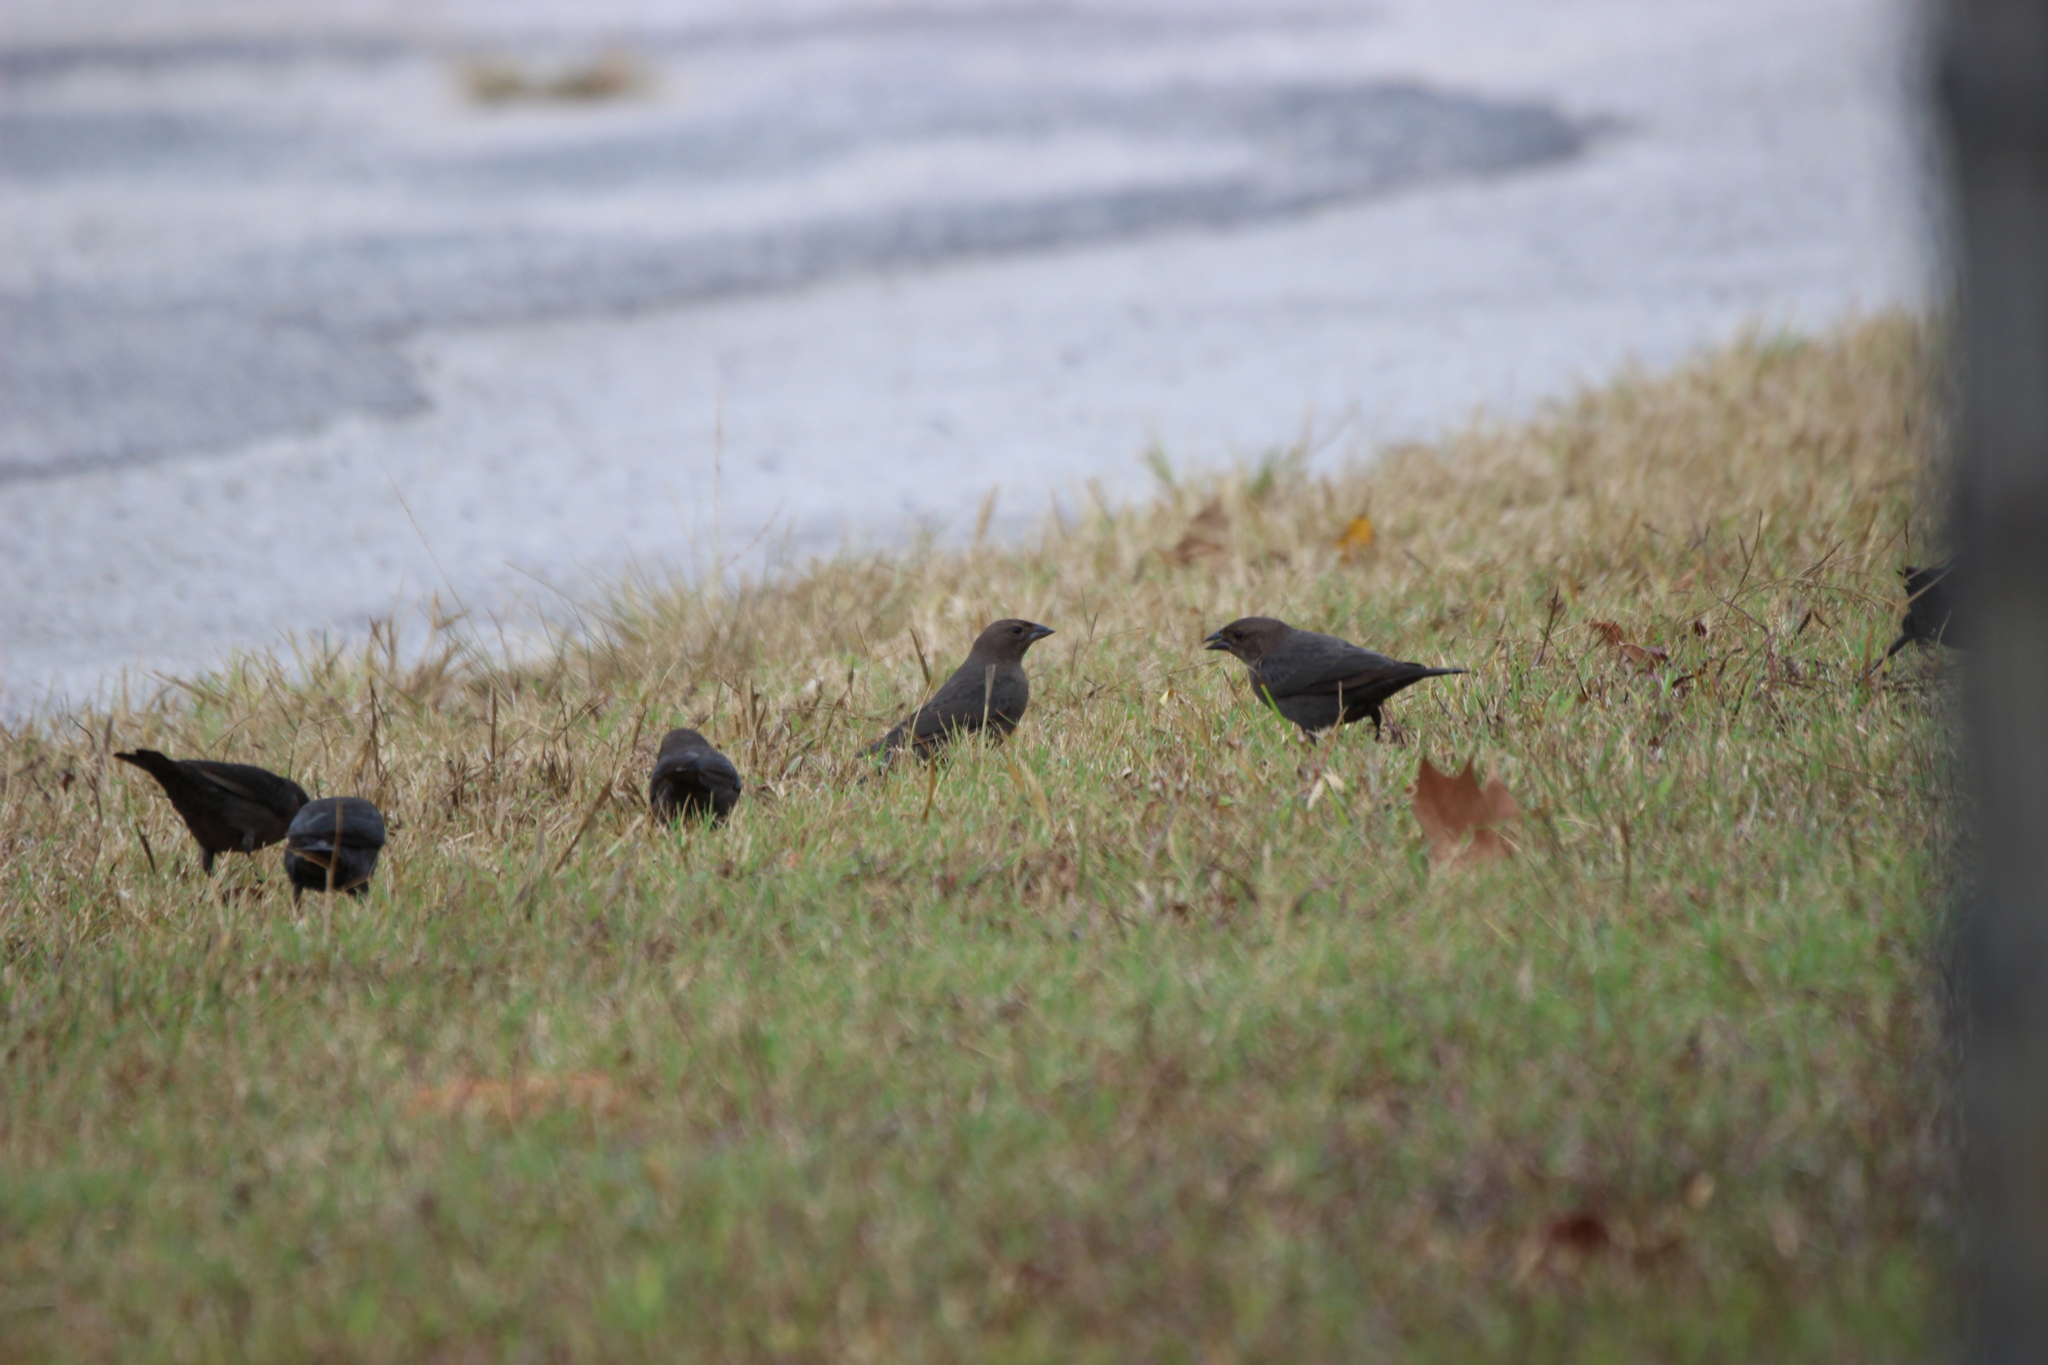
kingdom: Animalia
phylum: Chordata
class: Aves
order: Passeriformes
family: Icteridae
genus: Molothrus
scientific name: Molothrus ater
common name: Brown-headed cowbird
